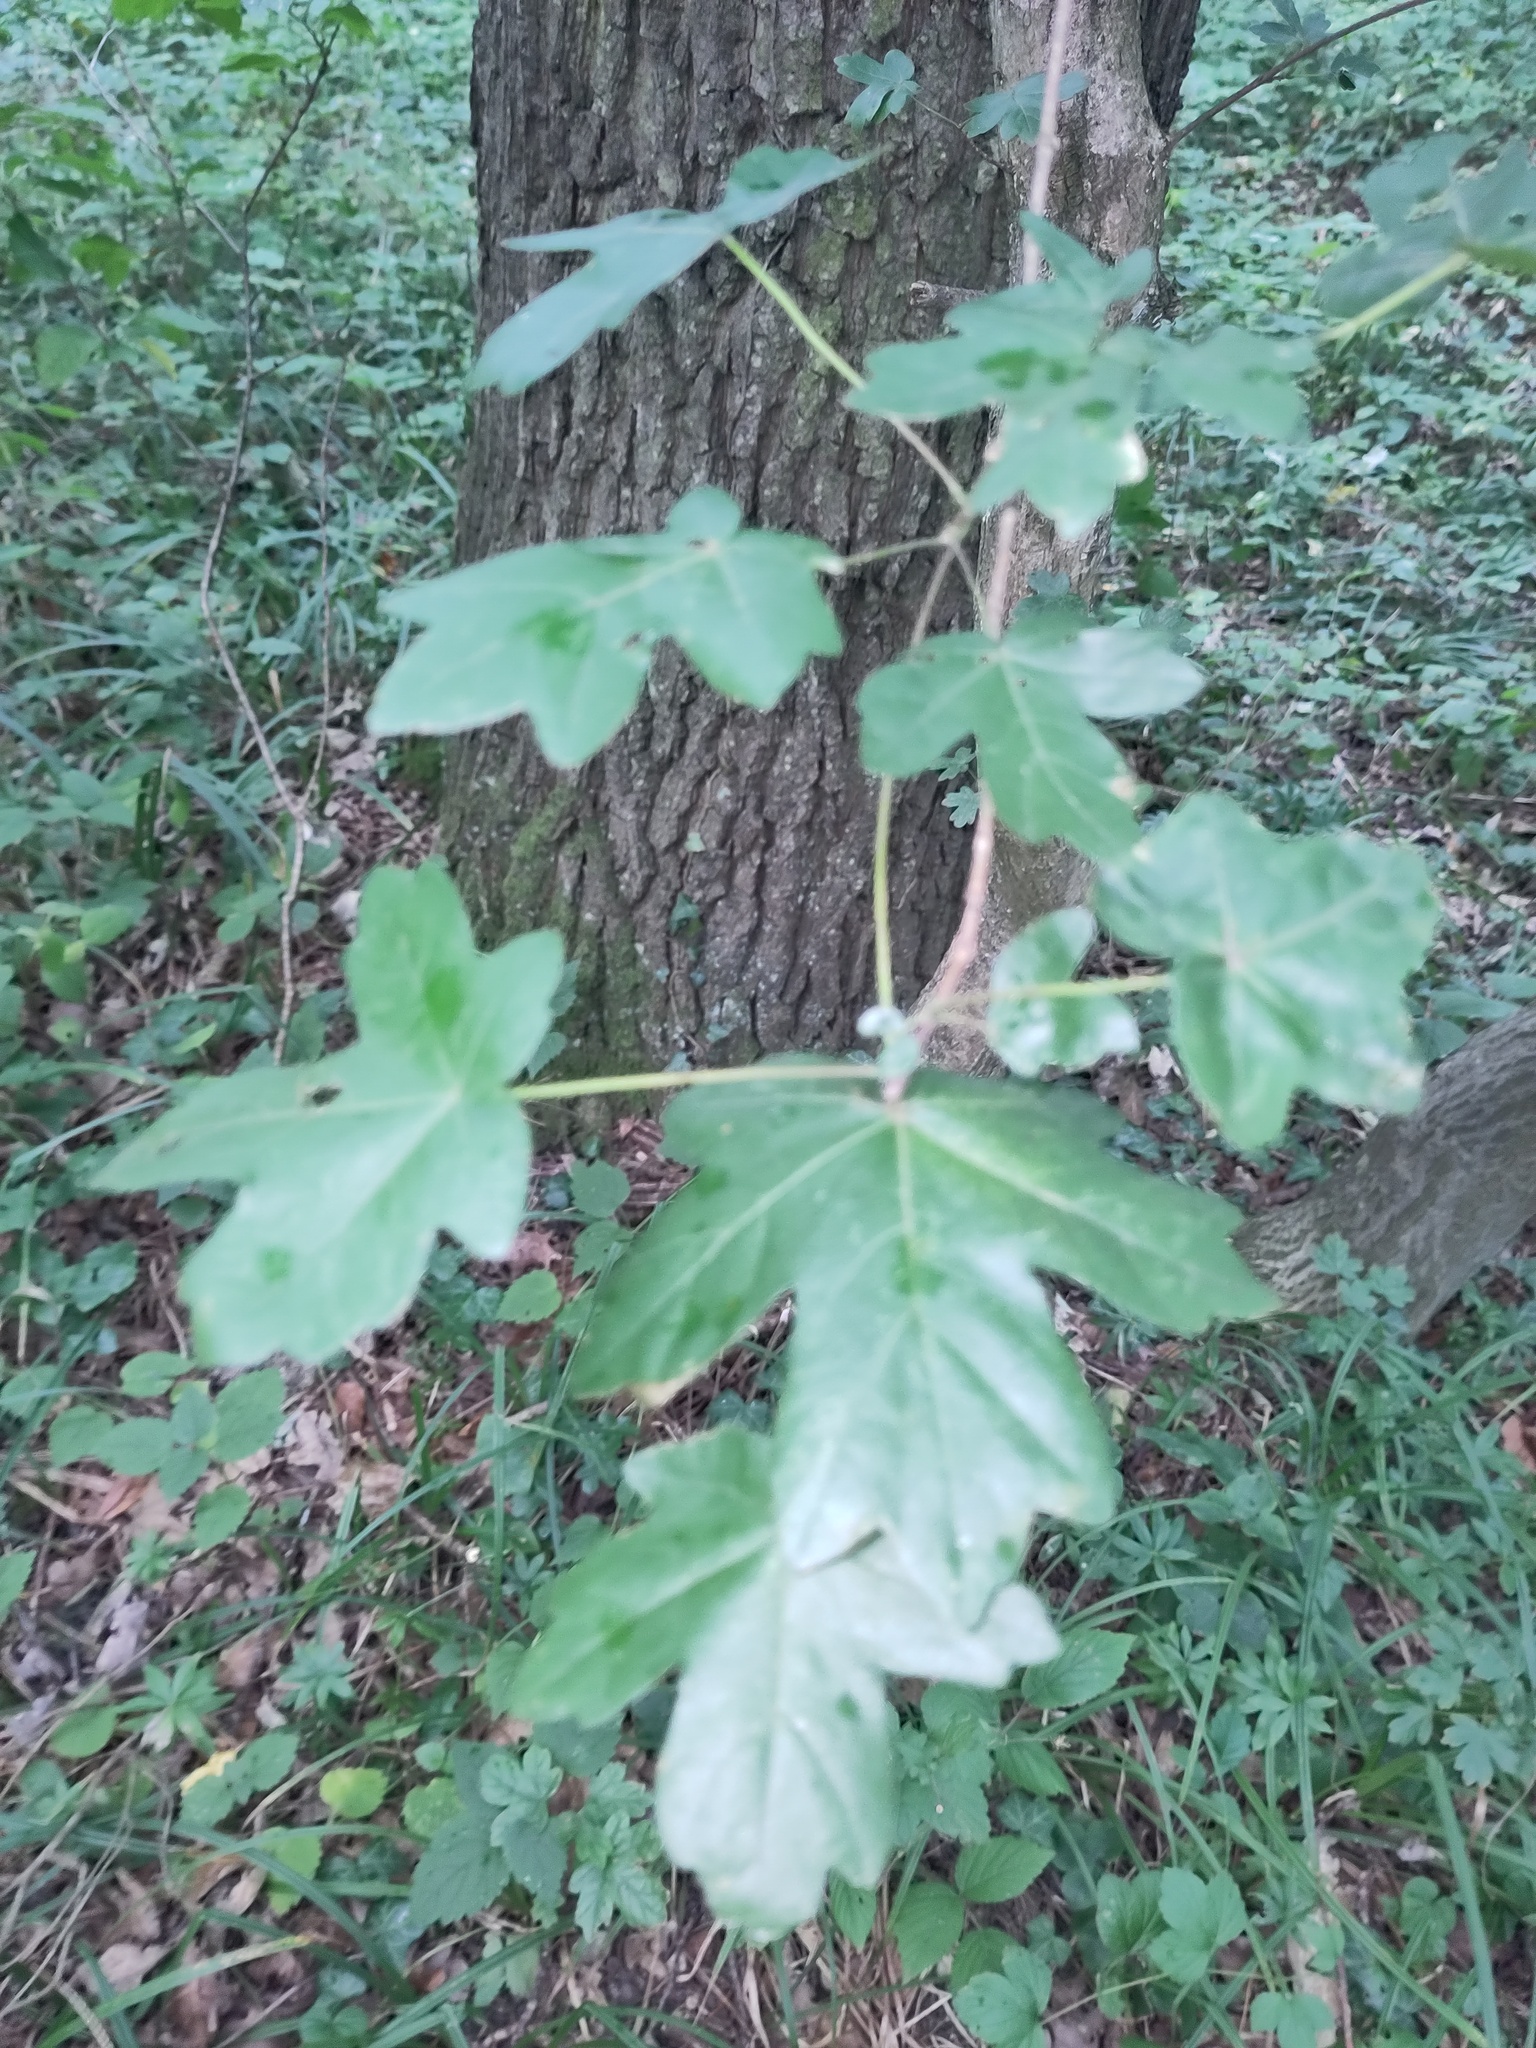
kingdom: Plantae
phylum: Tracheophyta
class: Magnoliopsida
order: Sapindales
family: Sapindaceae
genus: Acer
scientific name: Acer campestre
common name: Field maple
